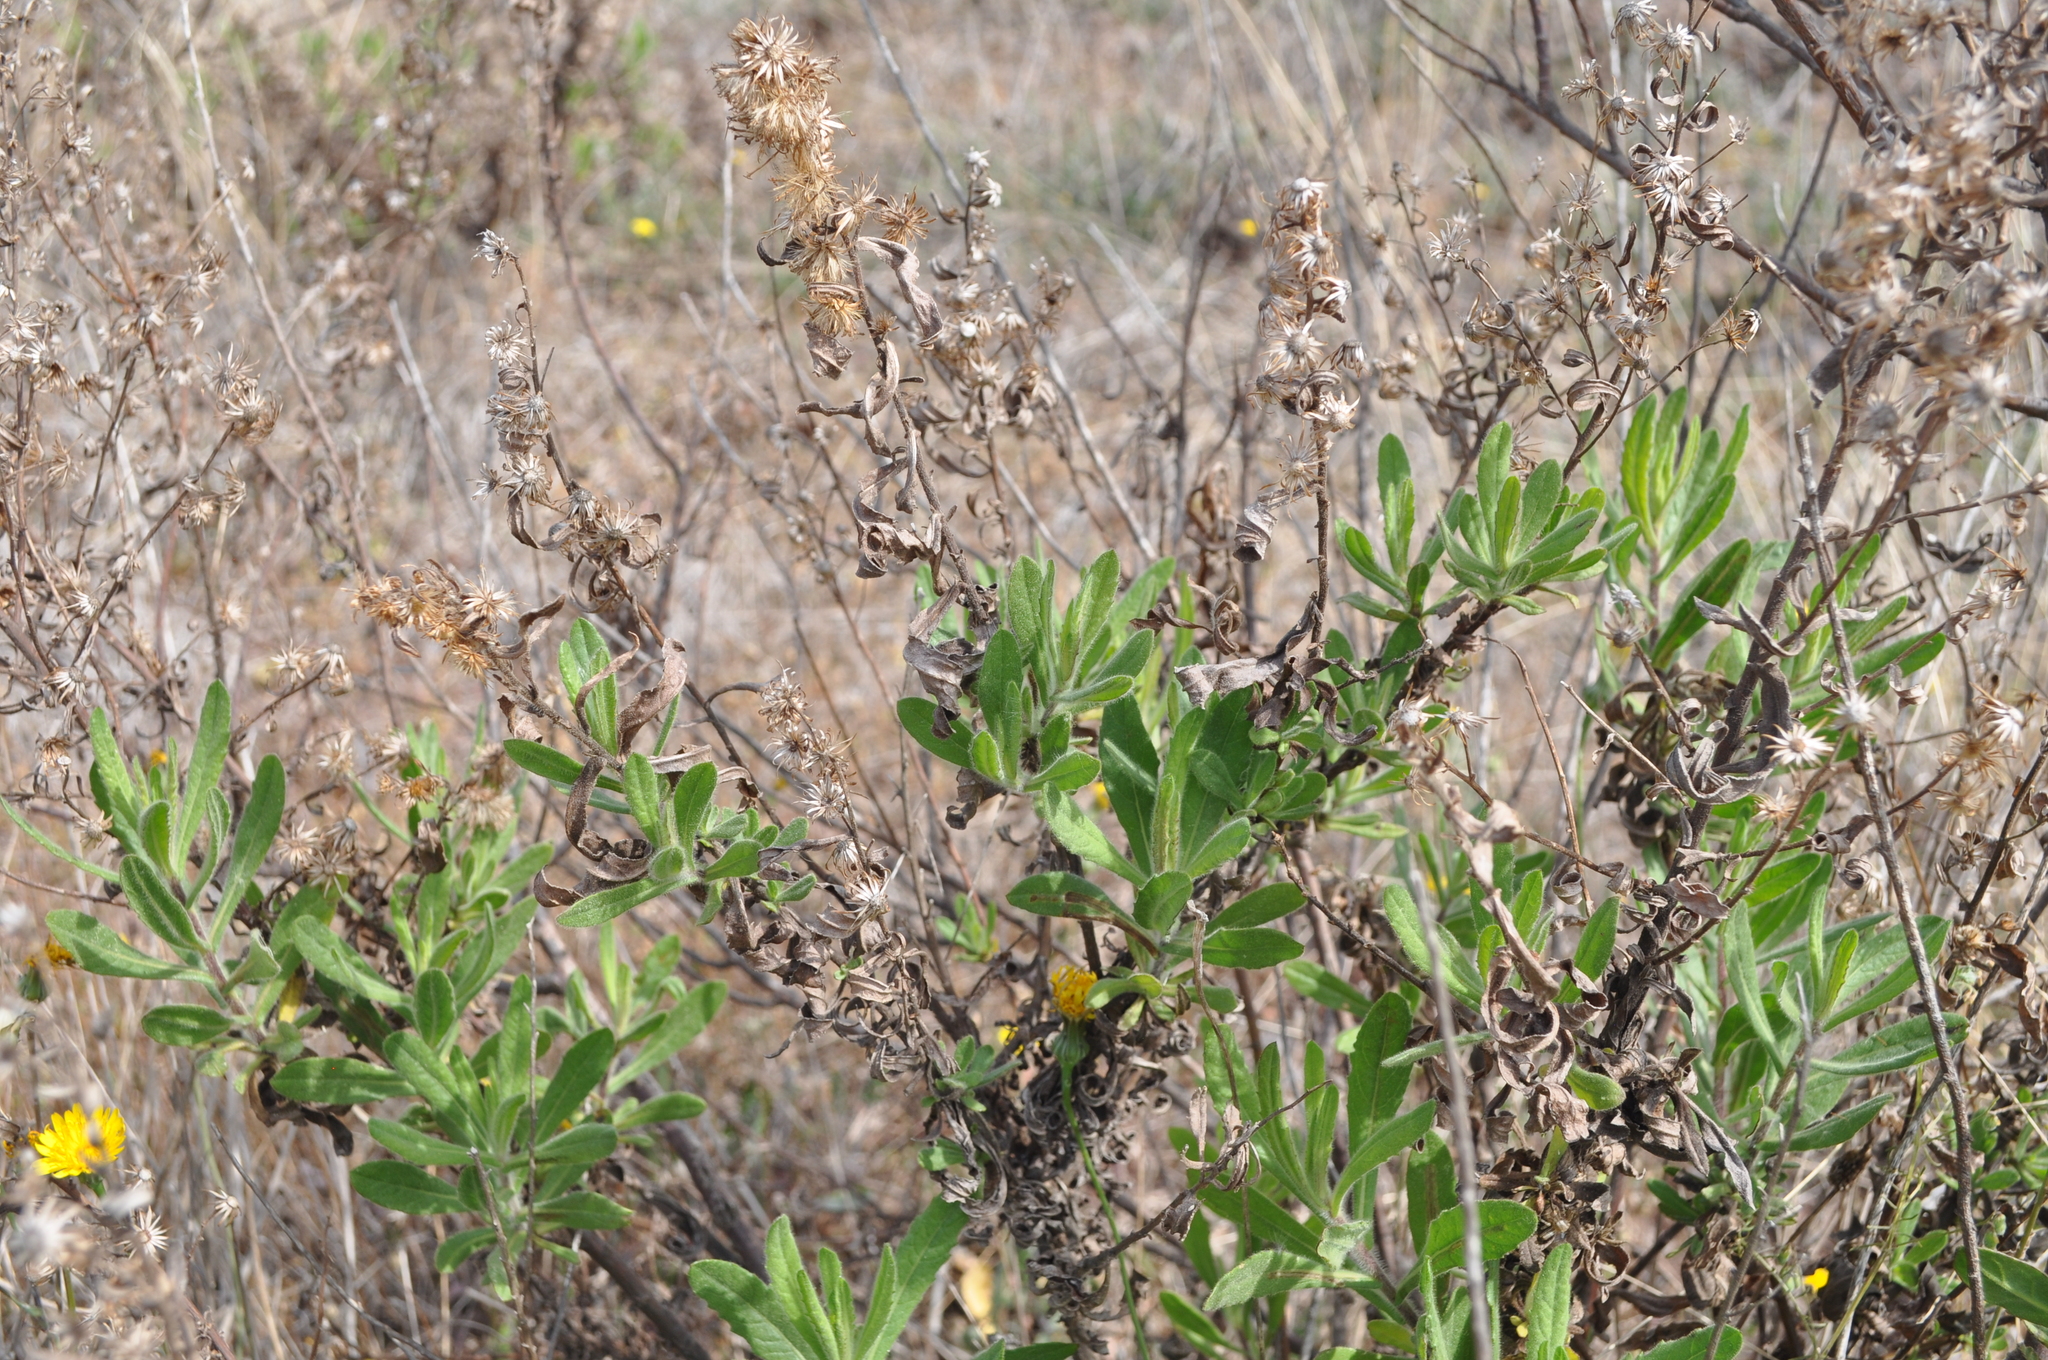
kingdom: Plantae
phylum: Tracheophyta
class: Magnoliopsida
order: Asterales
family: Asteraceae
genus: Dittrichia
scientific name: Dittrichia viscosa
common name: Woody fleabane
